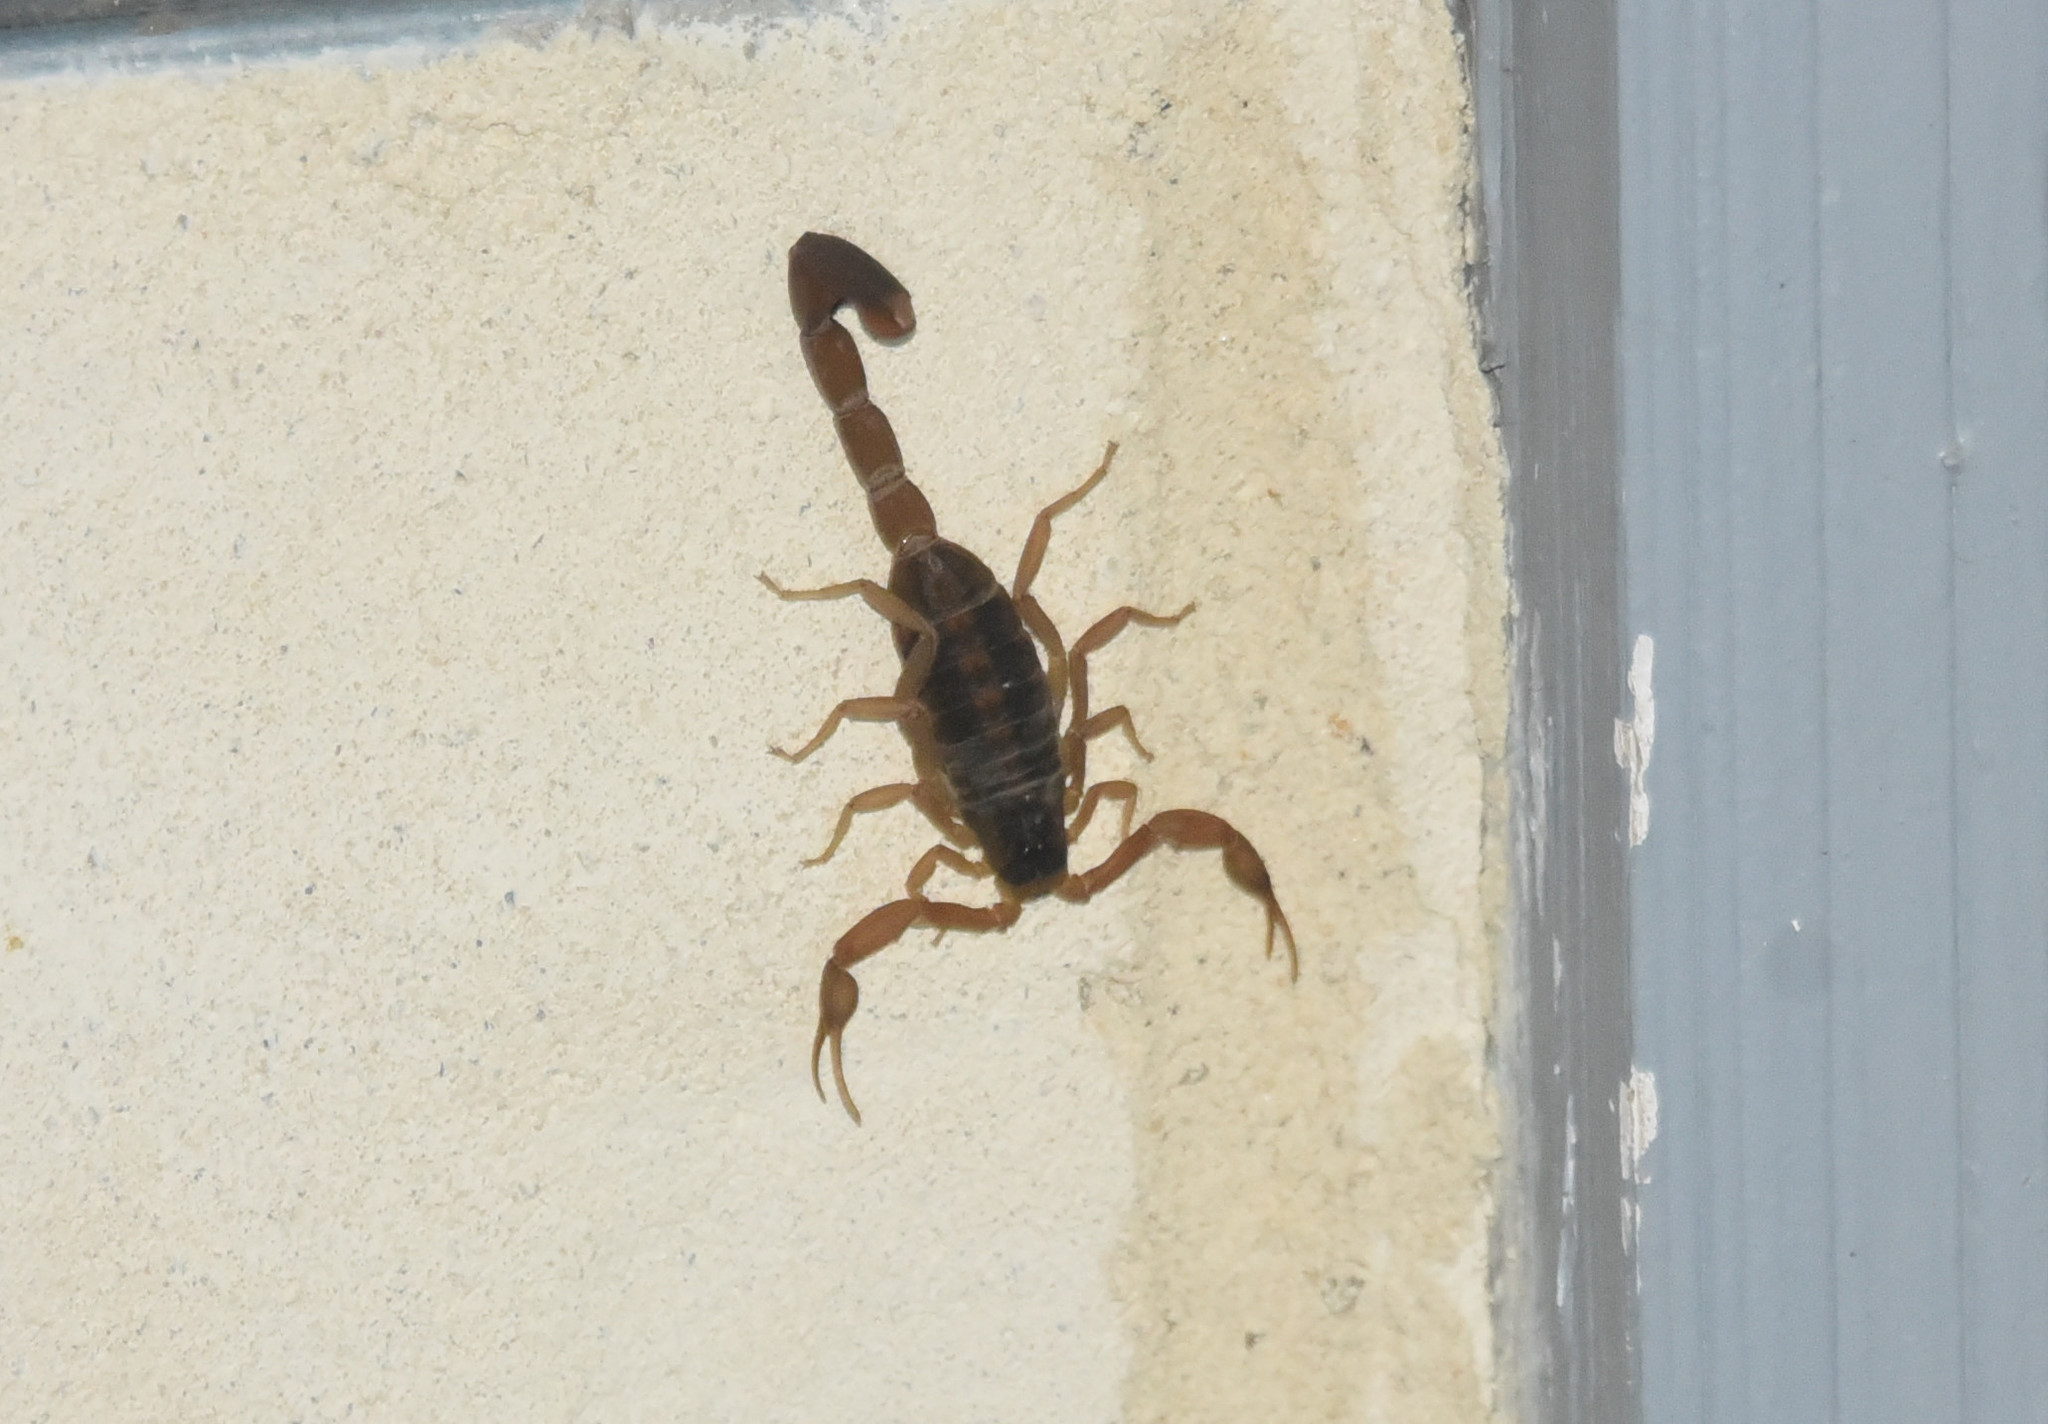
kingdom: Animalia
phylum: Arthropoda
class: Arachnida
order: Scorpiones
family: Buthidae
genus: Centruroides
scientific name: Centruroides vittatus
